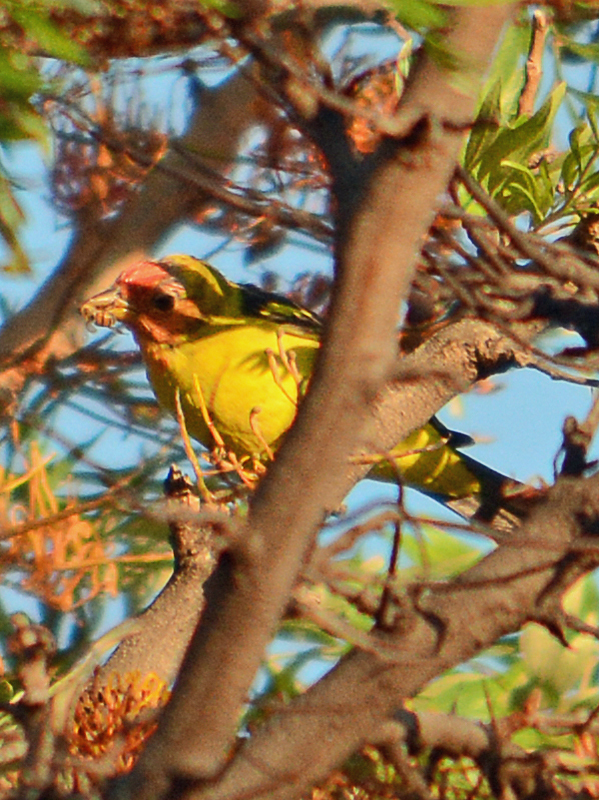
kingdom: Animalia
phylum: Chordata
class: Aves
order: Passeriformes
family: Cardinalidae
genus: Piranga
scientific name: Piranga ludoviciana
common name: Western tanager
